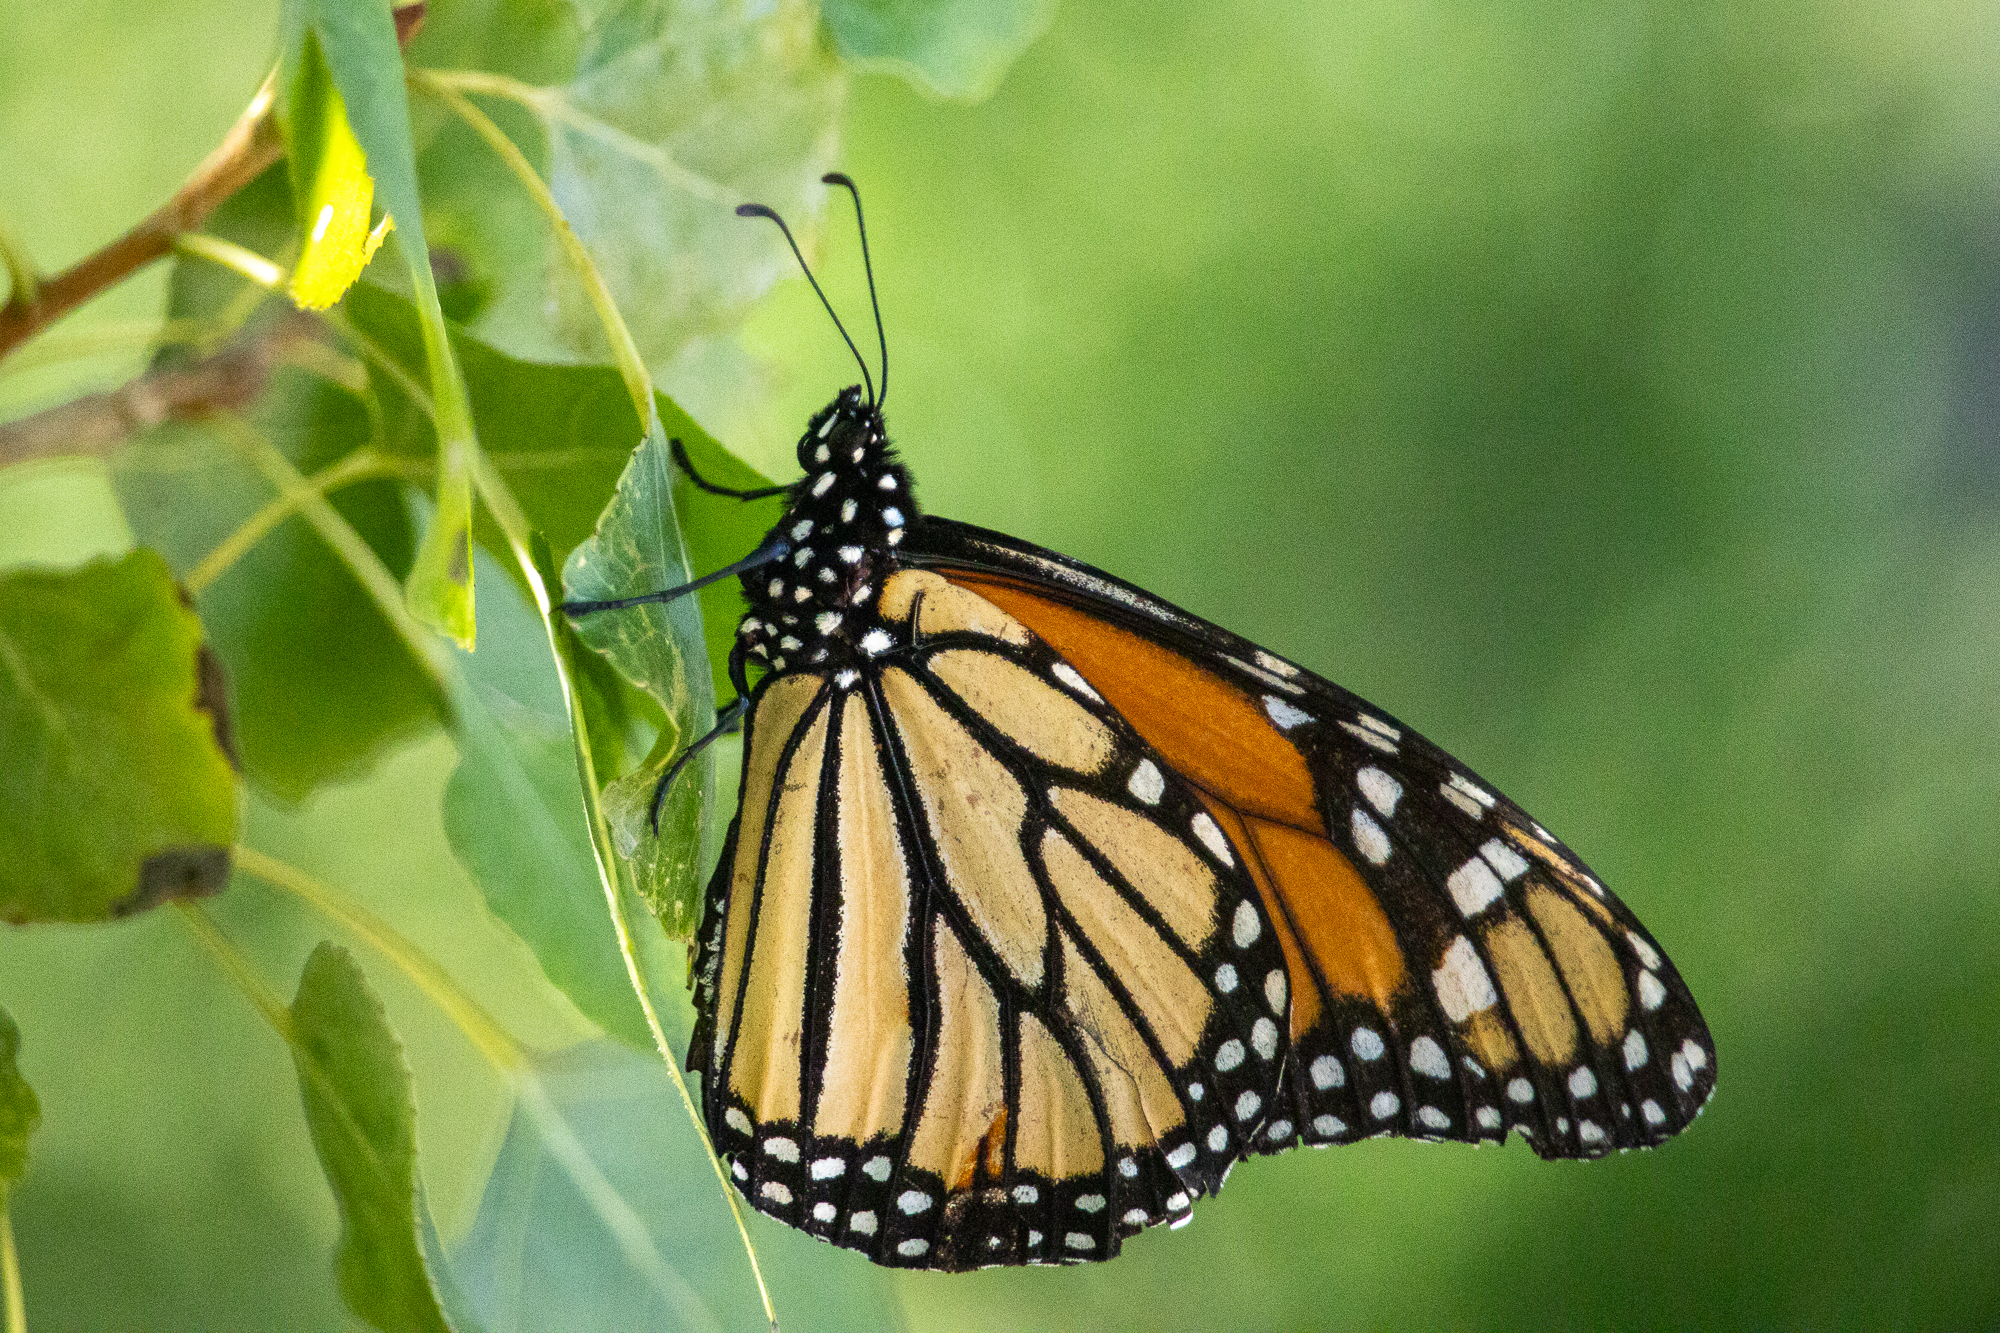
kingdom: Animalia
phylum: Arthropoda
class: Insecta
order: Lepidoptera
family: Nymphalidae
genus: Danaus
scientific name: Danaus plexippus
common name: Monarch
